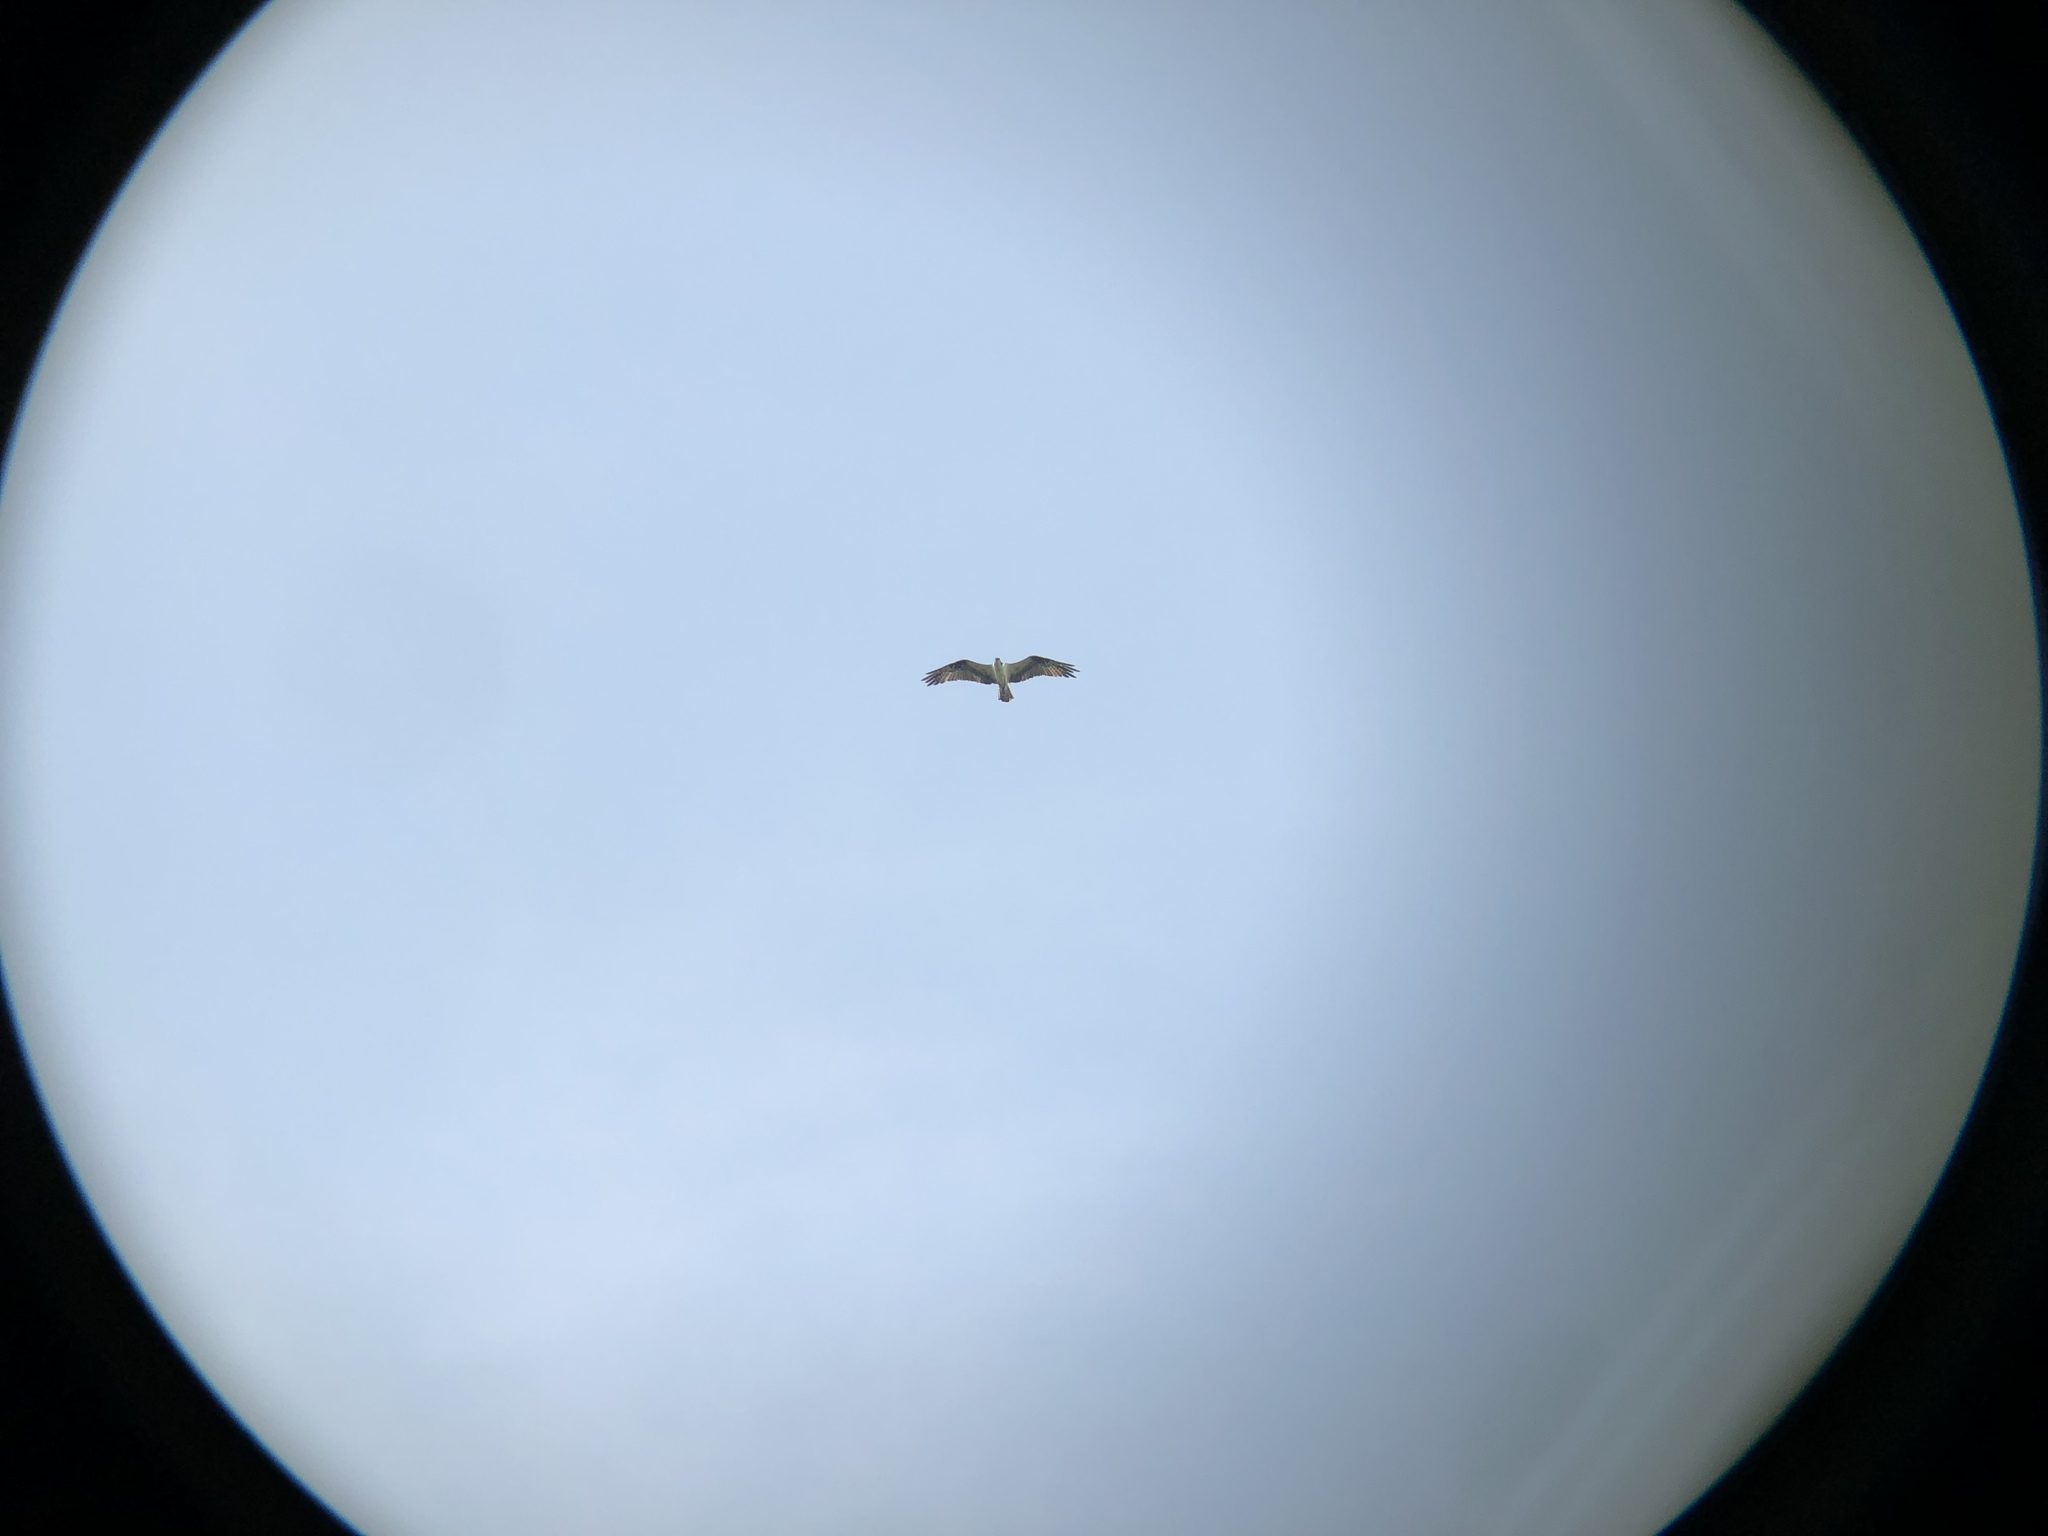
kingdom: Animalia
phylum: Chordata
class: Aves
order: Accipitriformes
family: Pandionidae
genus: Pandion
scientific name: Pandion haliaetus
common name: Osprey
